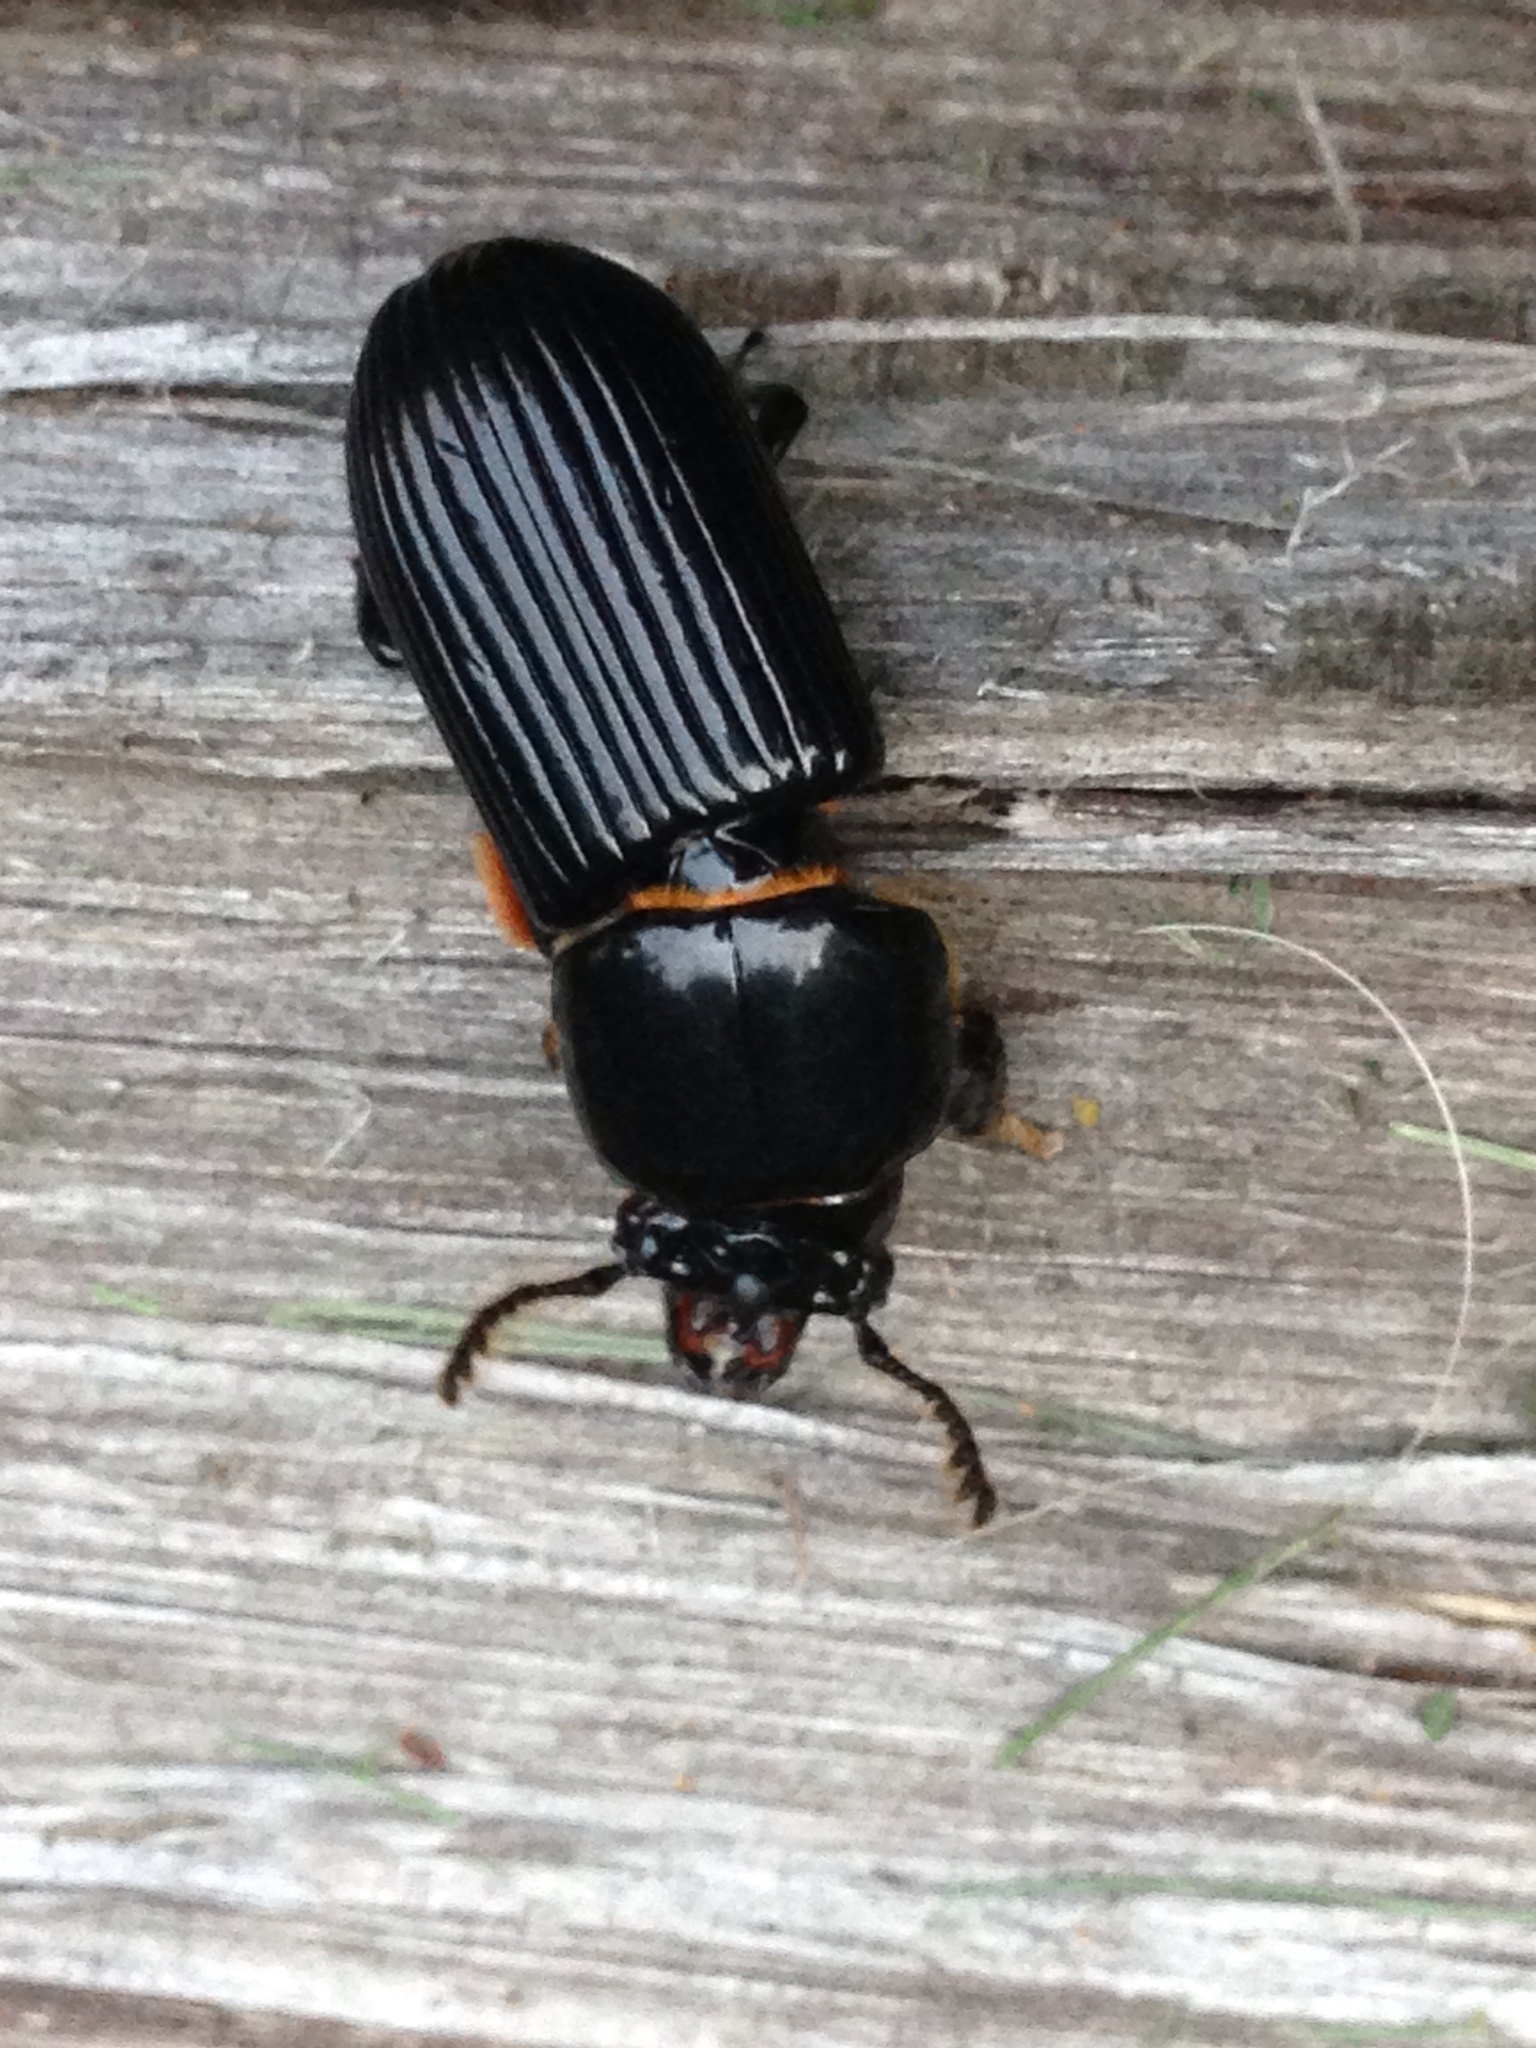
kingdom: Animalia
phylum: Arthropoda
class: Insecta
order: Coleoptera
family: Passalidae
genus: Odontotaenius
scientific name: Odontotaenius disjunctus
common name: Patent leather beetle
